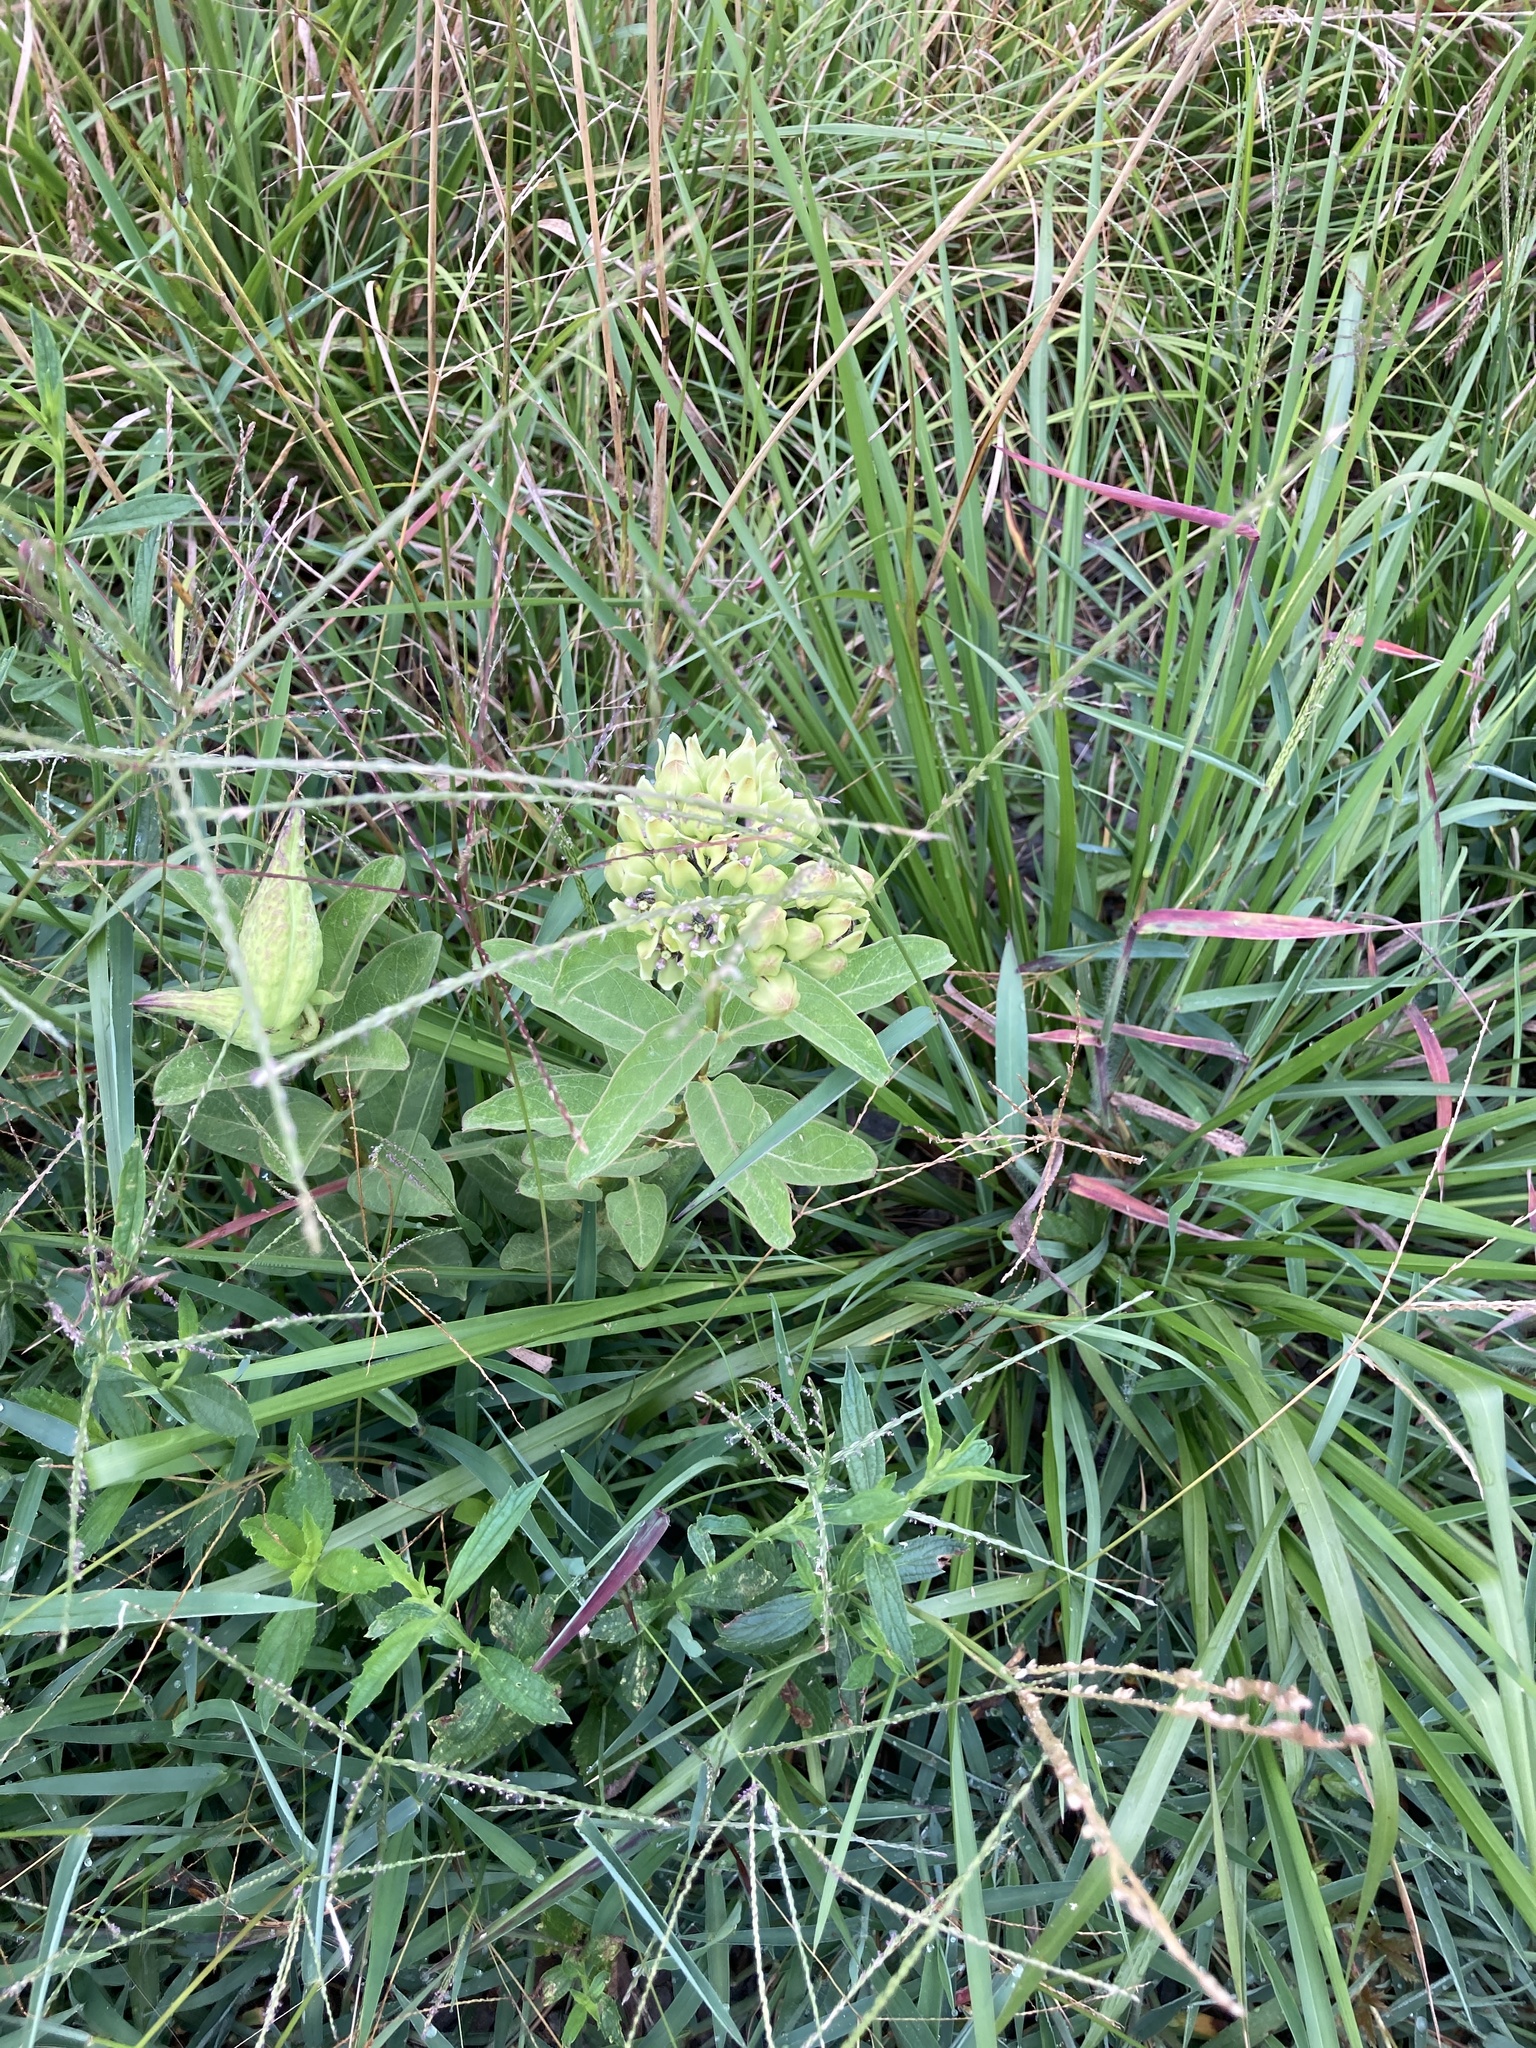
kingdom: Plantae
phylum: Tracheophyta
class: Magnoliopsida
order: Gentianales
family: Apocynaceae
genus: Asclepias
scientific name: Asclepias viridis
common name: Antelope-horns
